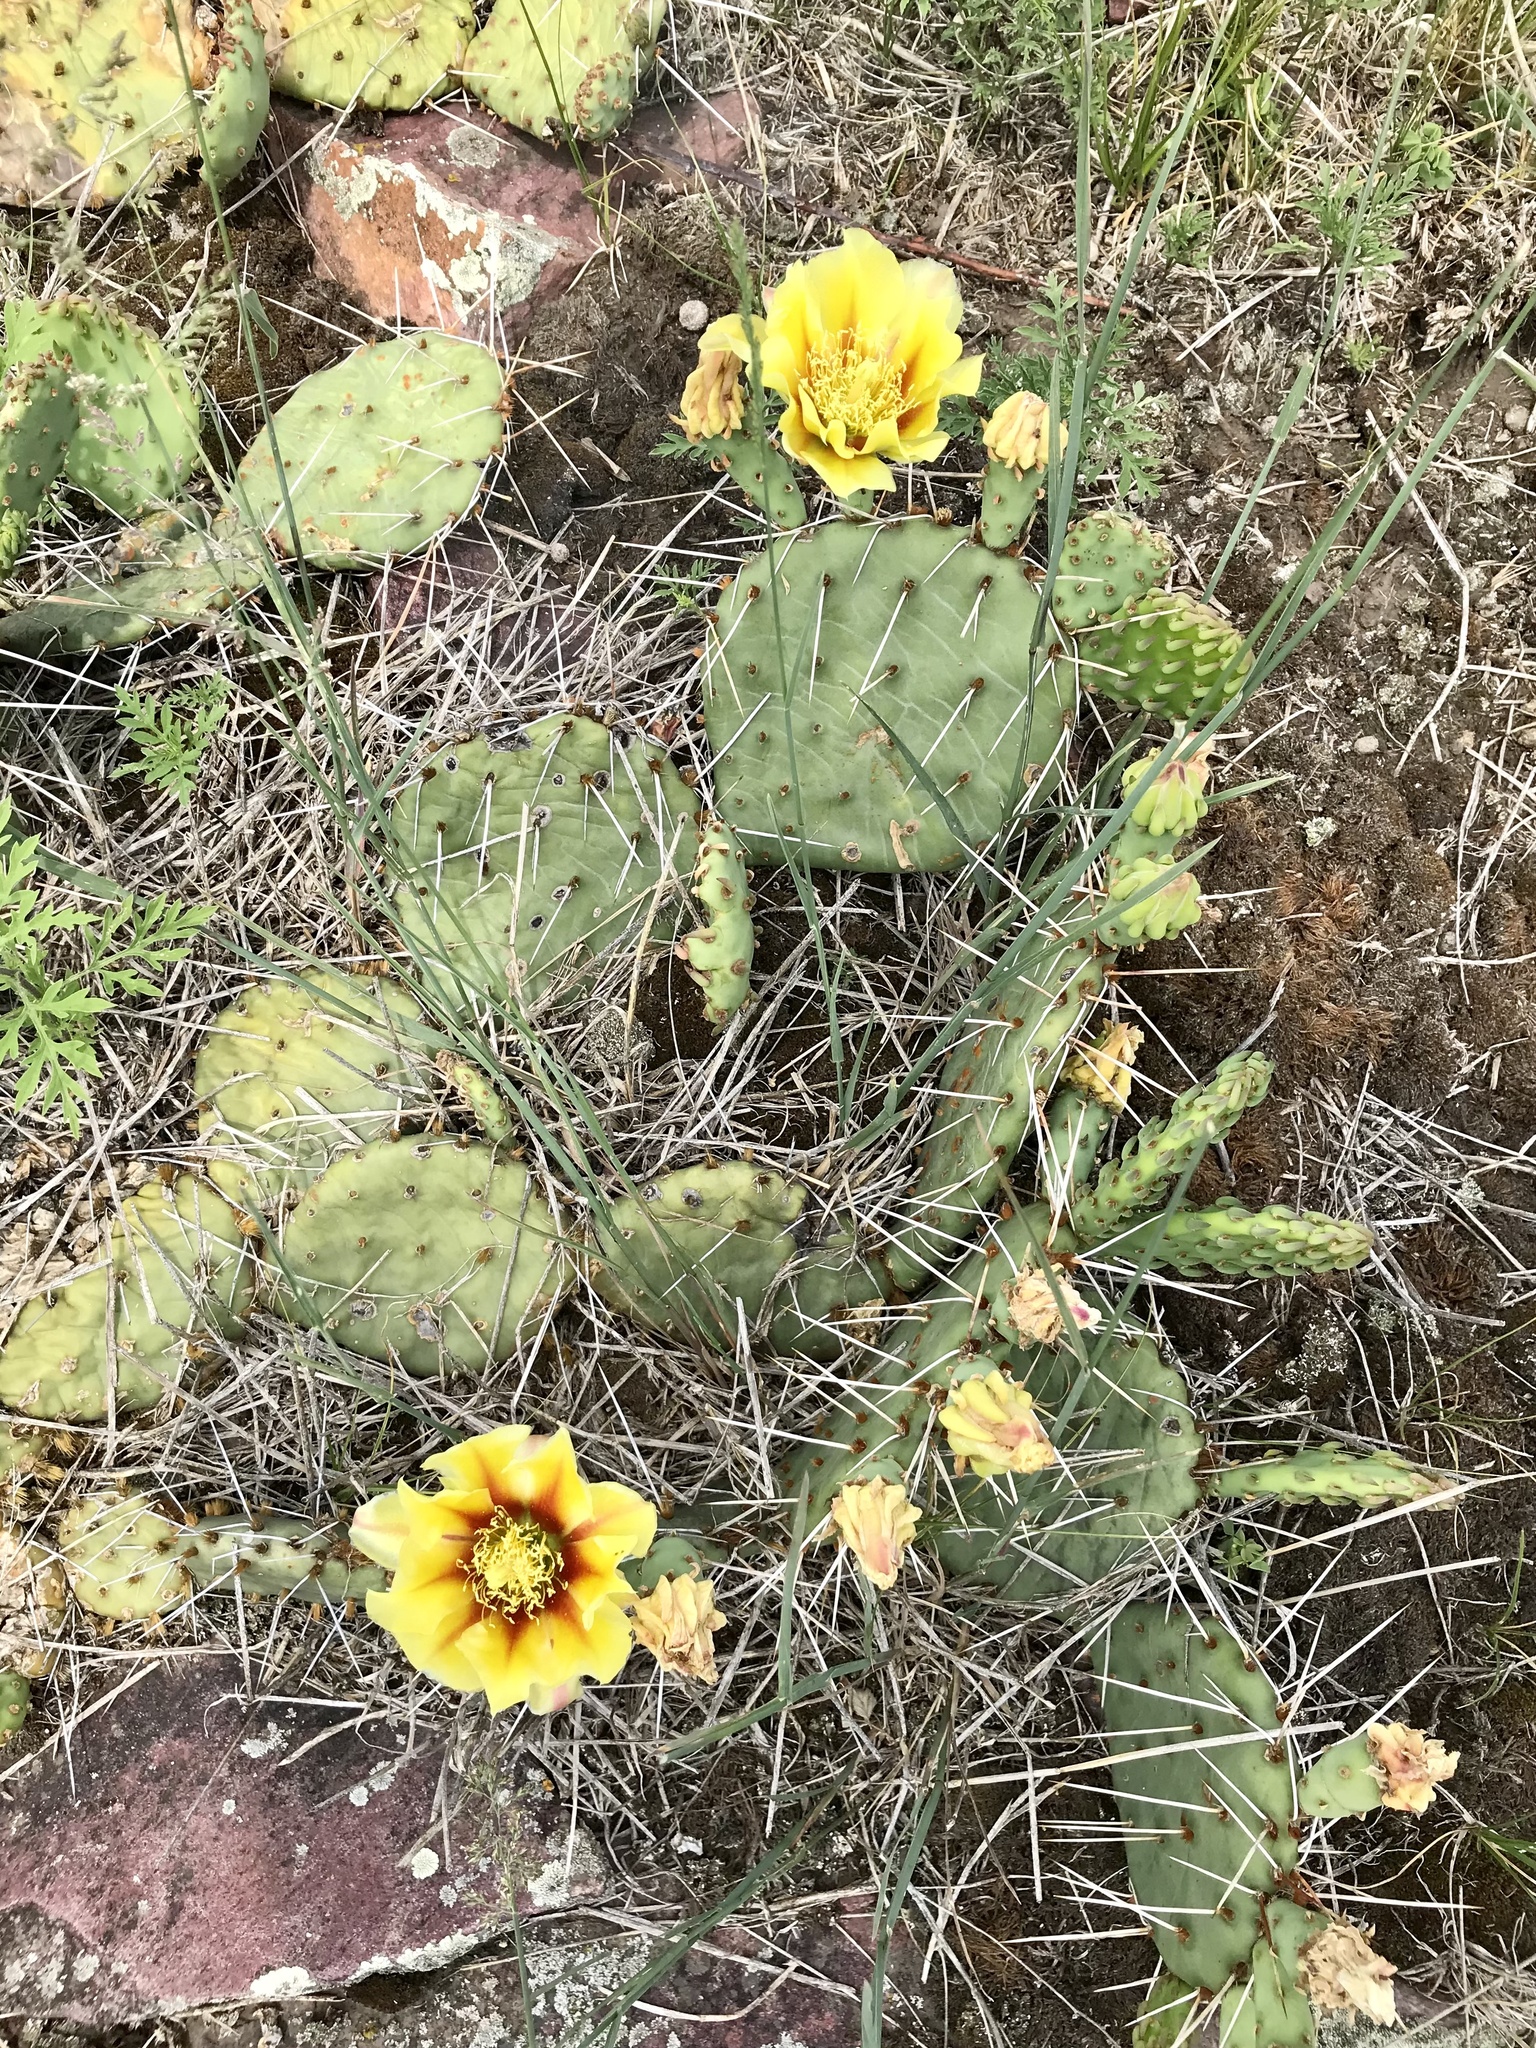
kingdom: Plantae
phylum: Tracheophyta
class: Magnoliopsida
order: Caryophyllales
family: Cactaceae
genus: Opuntia
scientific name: Opuntia macrorhiza
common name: Grassland pricklypear
